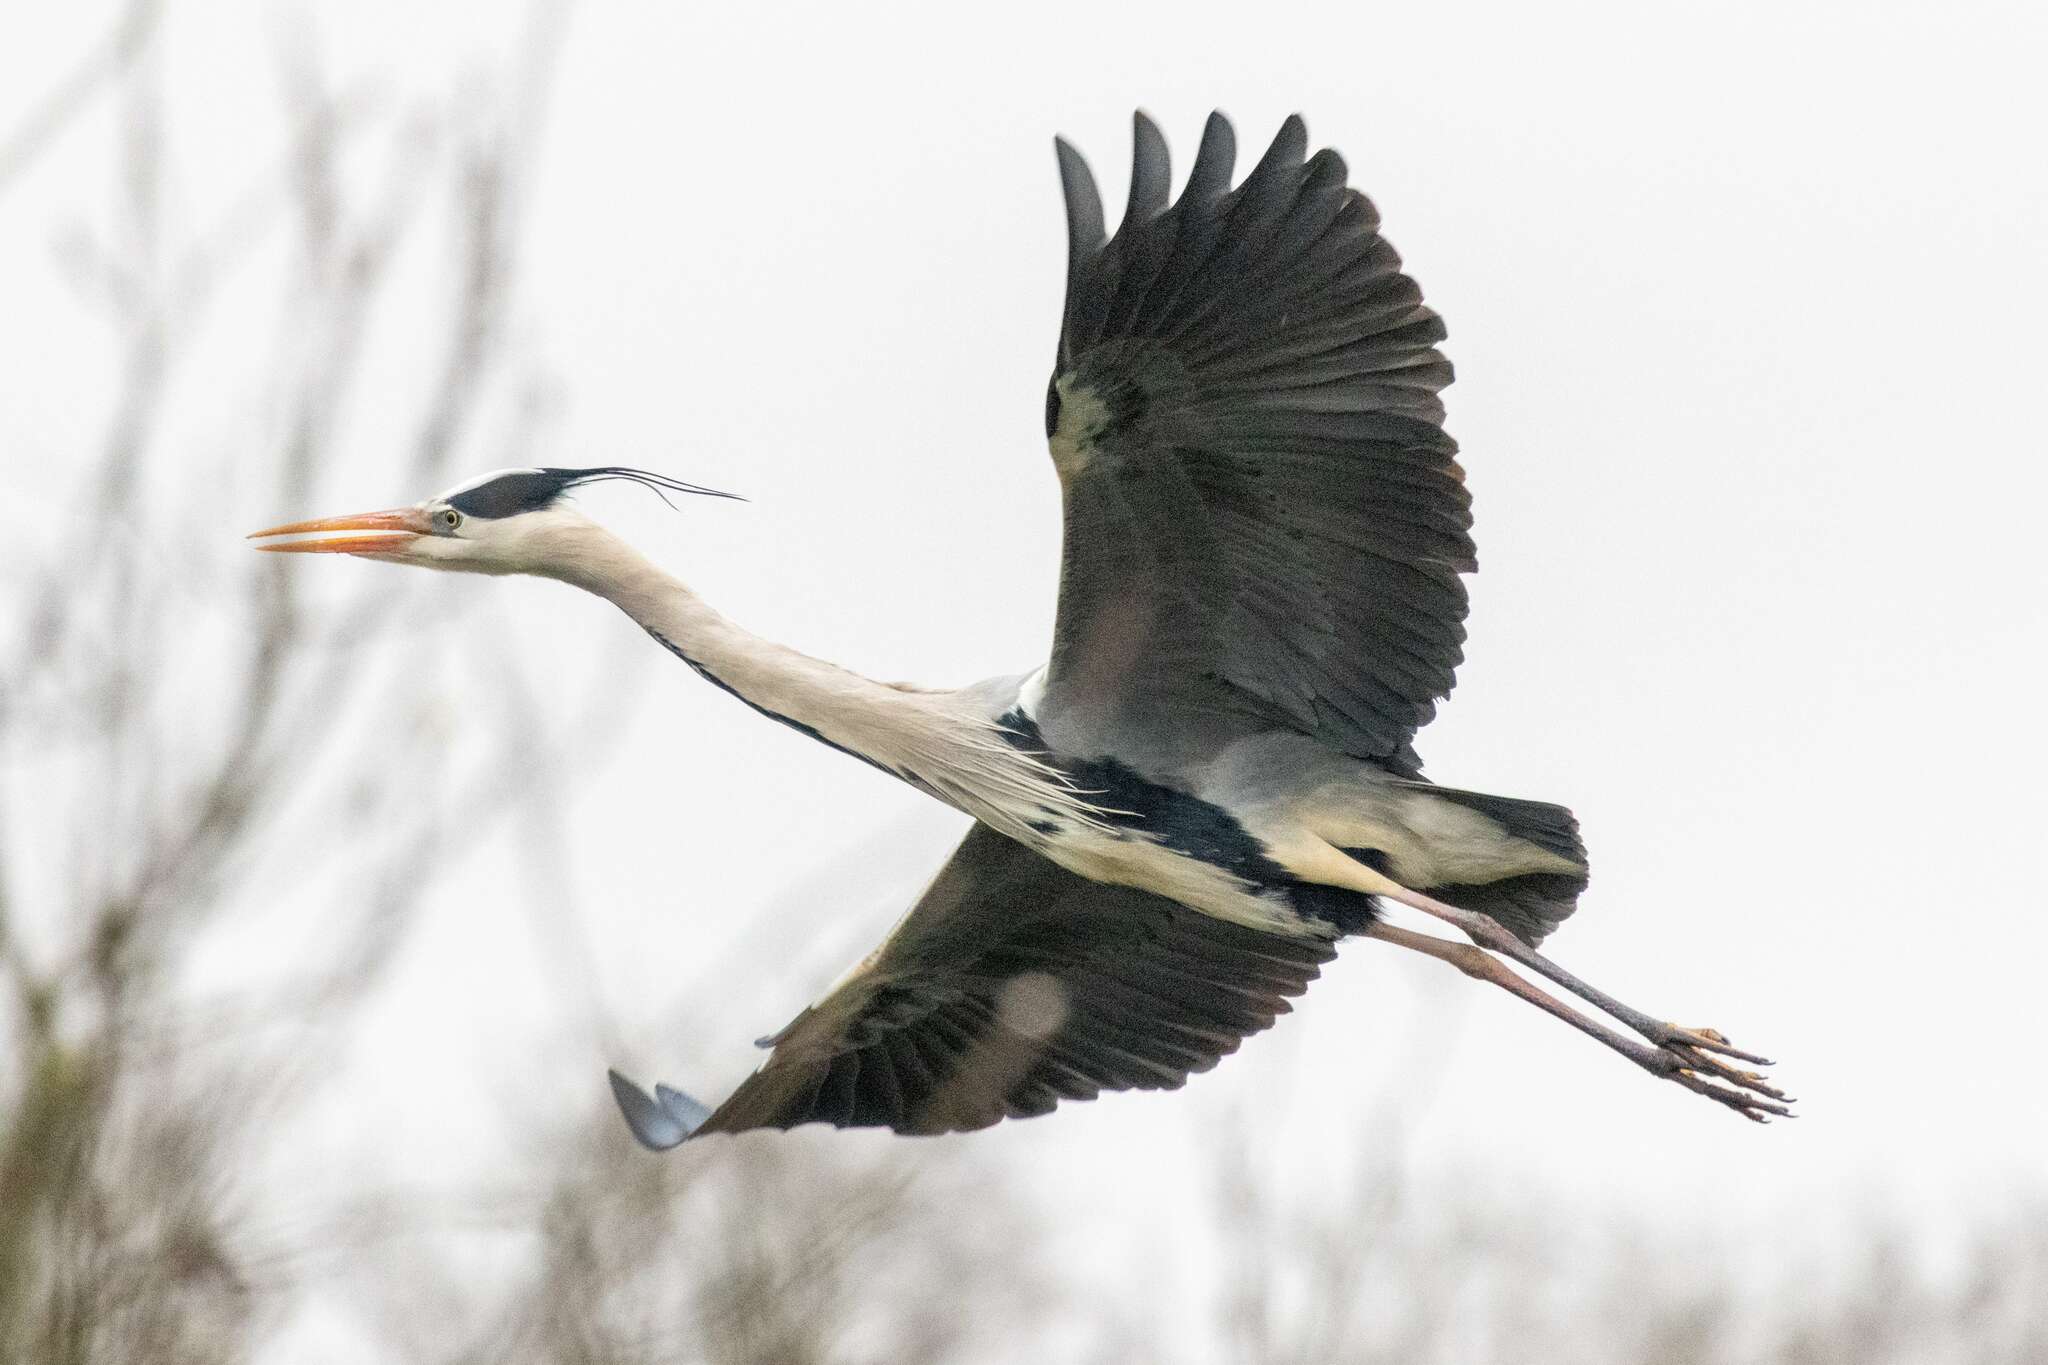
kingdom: Animalia
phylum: Chordata
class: Aves
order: Pelecaniformes
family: Ardeidae
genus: Ardea
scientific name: Ardea cinerea
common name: Grey heron
